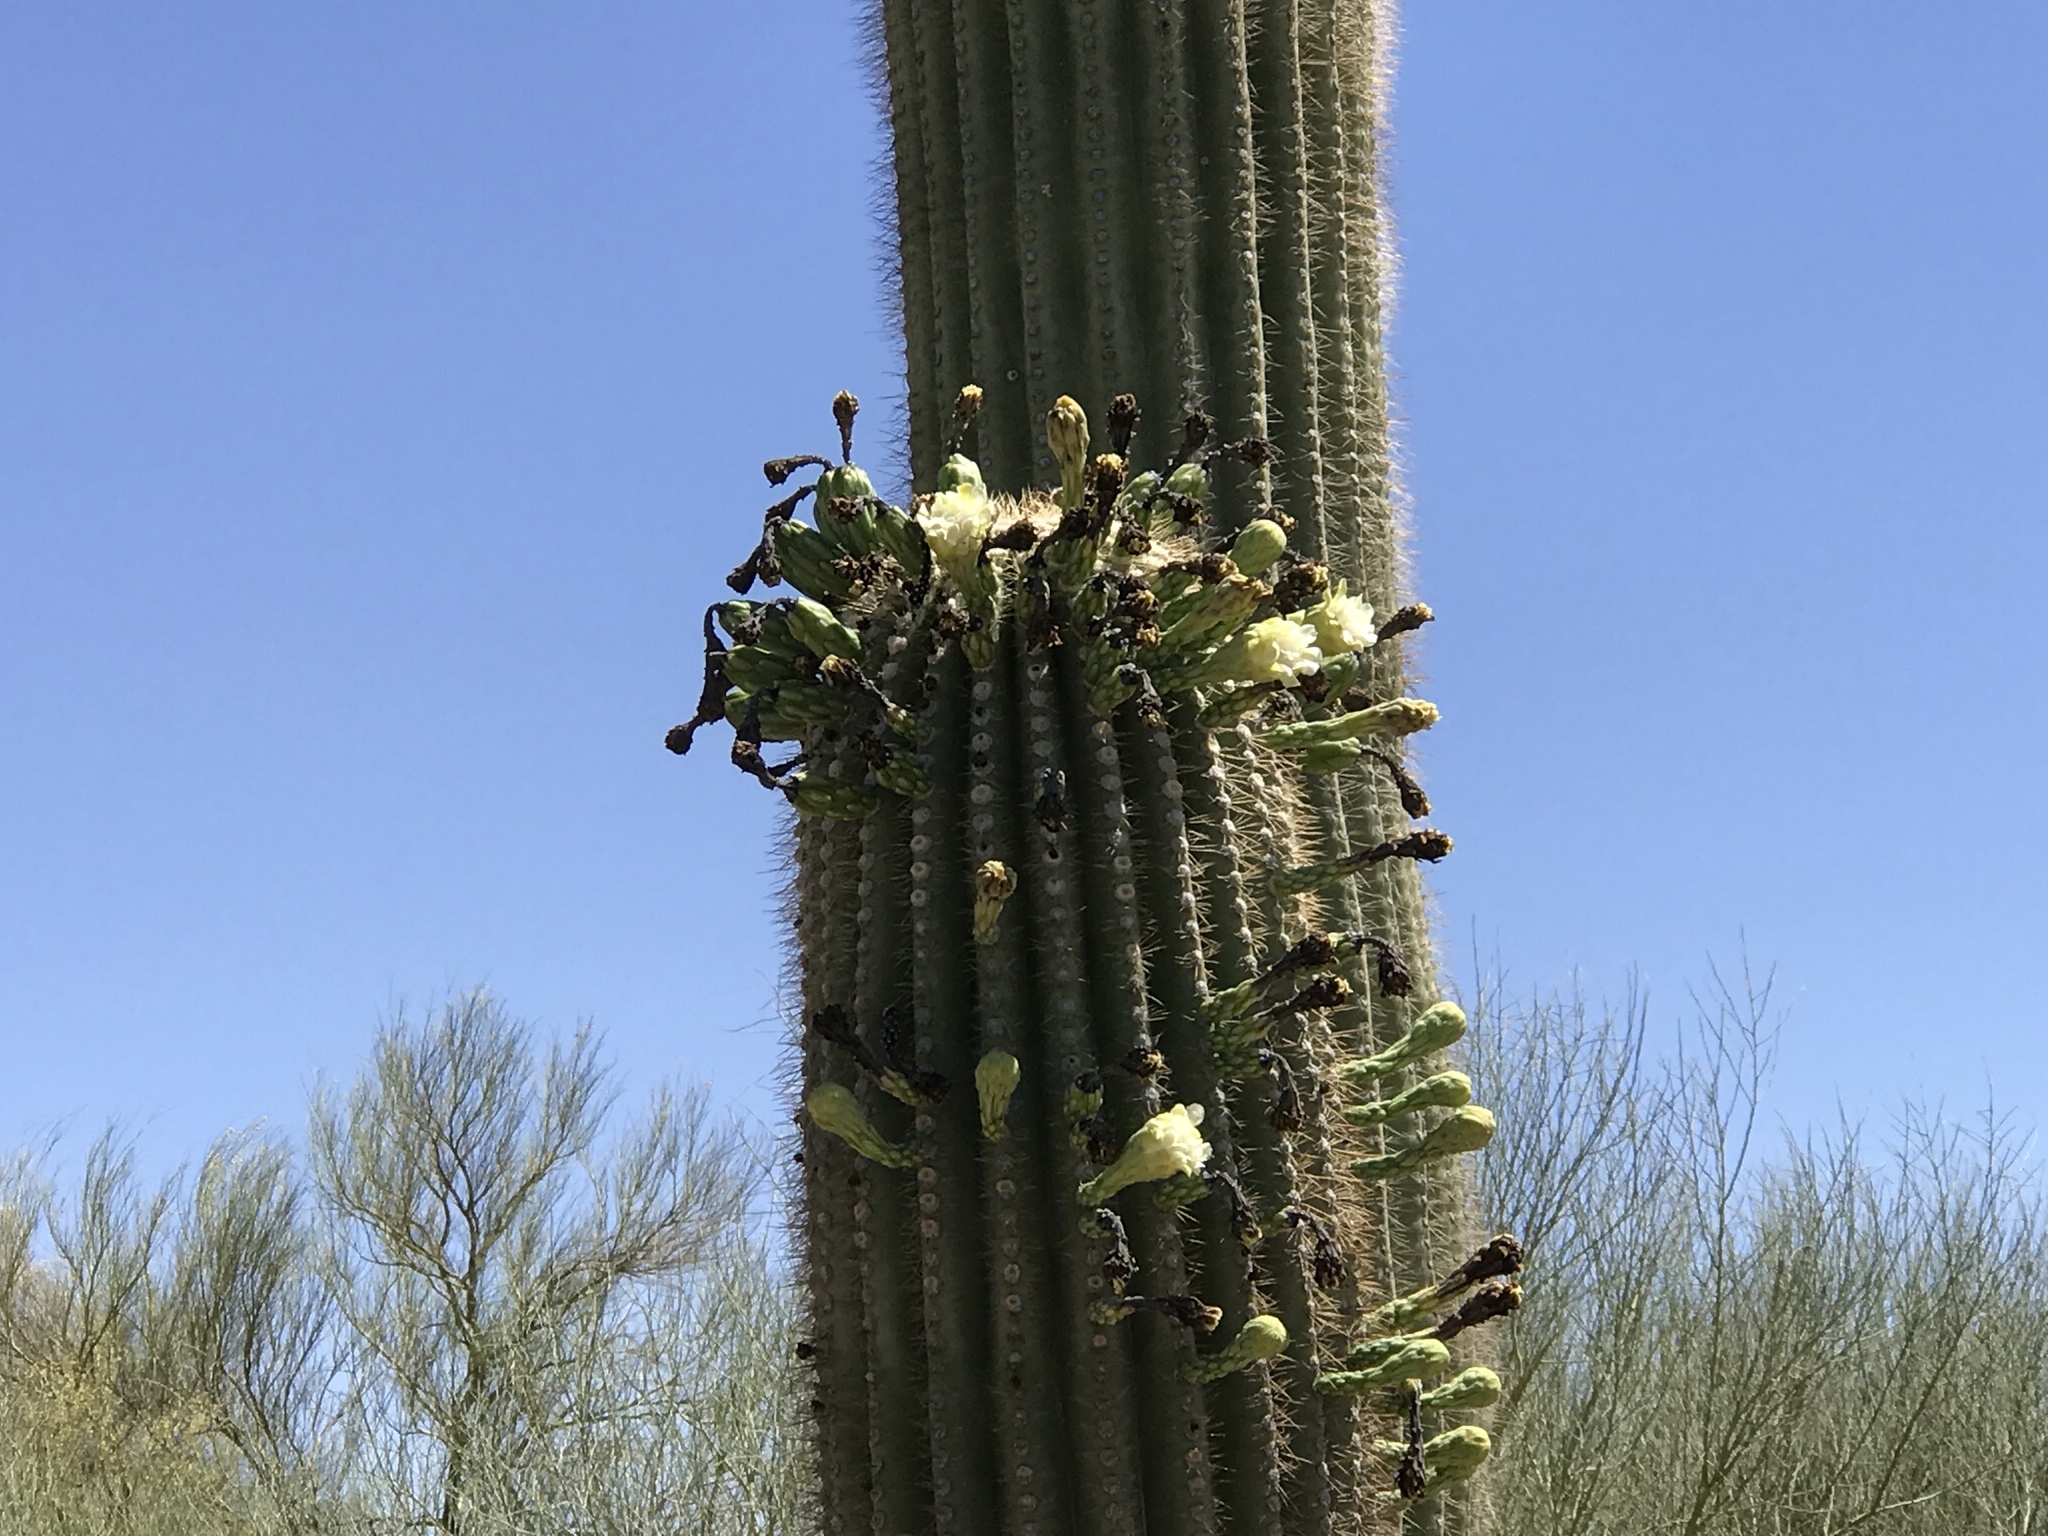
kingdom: Plantae
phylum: Tracheophyta
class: Magnoliopsida
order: Caryophyllales
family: Cactaceae
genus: Carnegiea
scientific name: Carnegiea gigantea
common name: Saguaro
